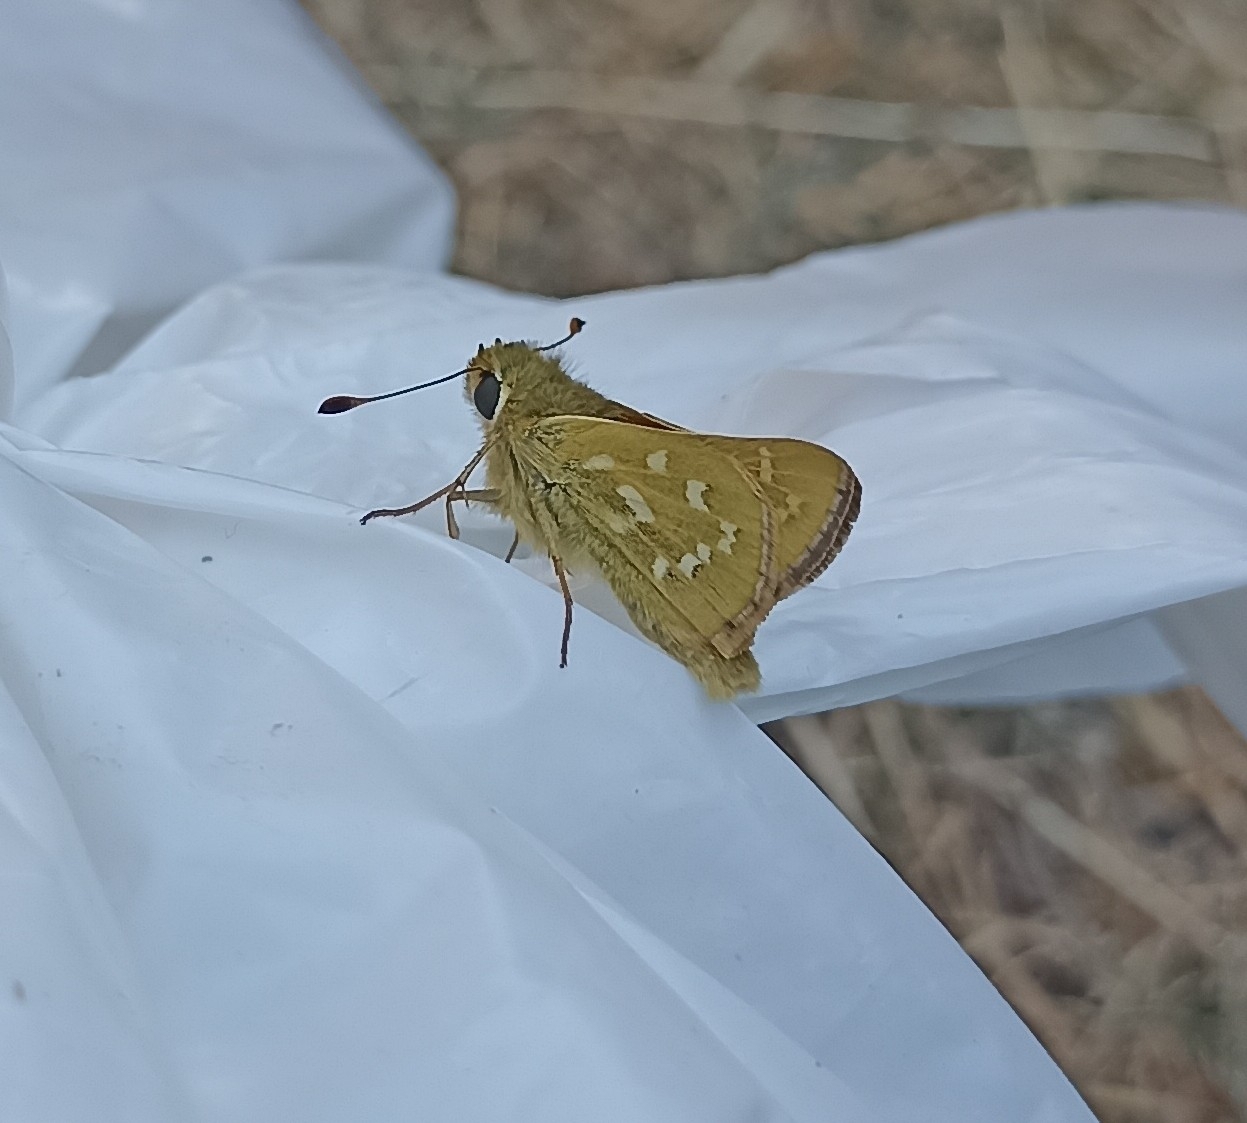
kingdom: Animalia
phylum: Arthropoda
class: Insecta
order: Lepidoptera
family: Hesperiidae
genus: Hesperia
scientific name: Hesperia comma
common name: Common branded skipper
